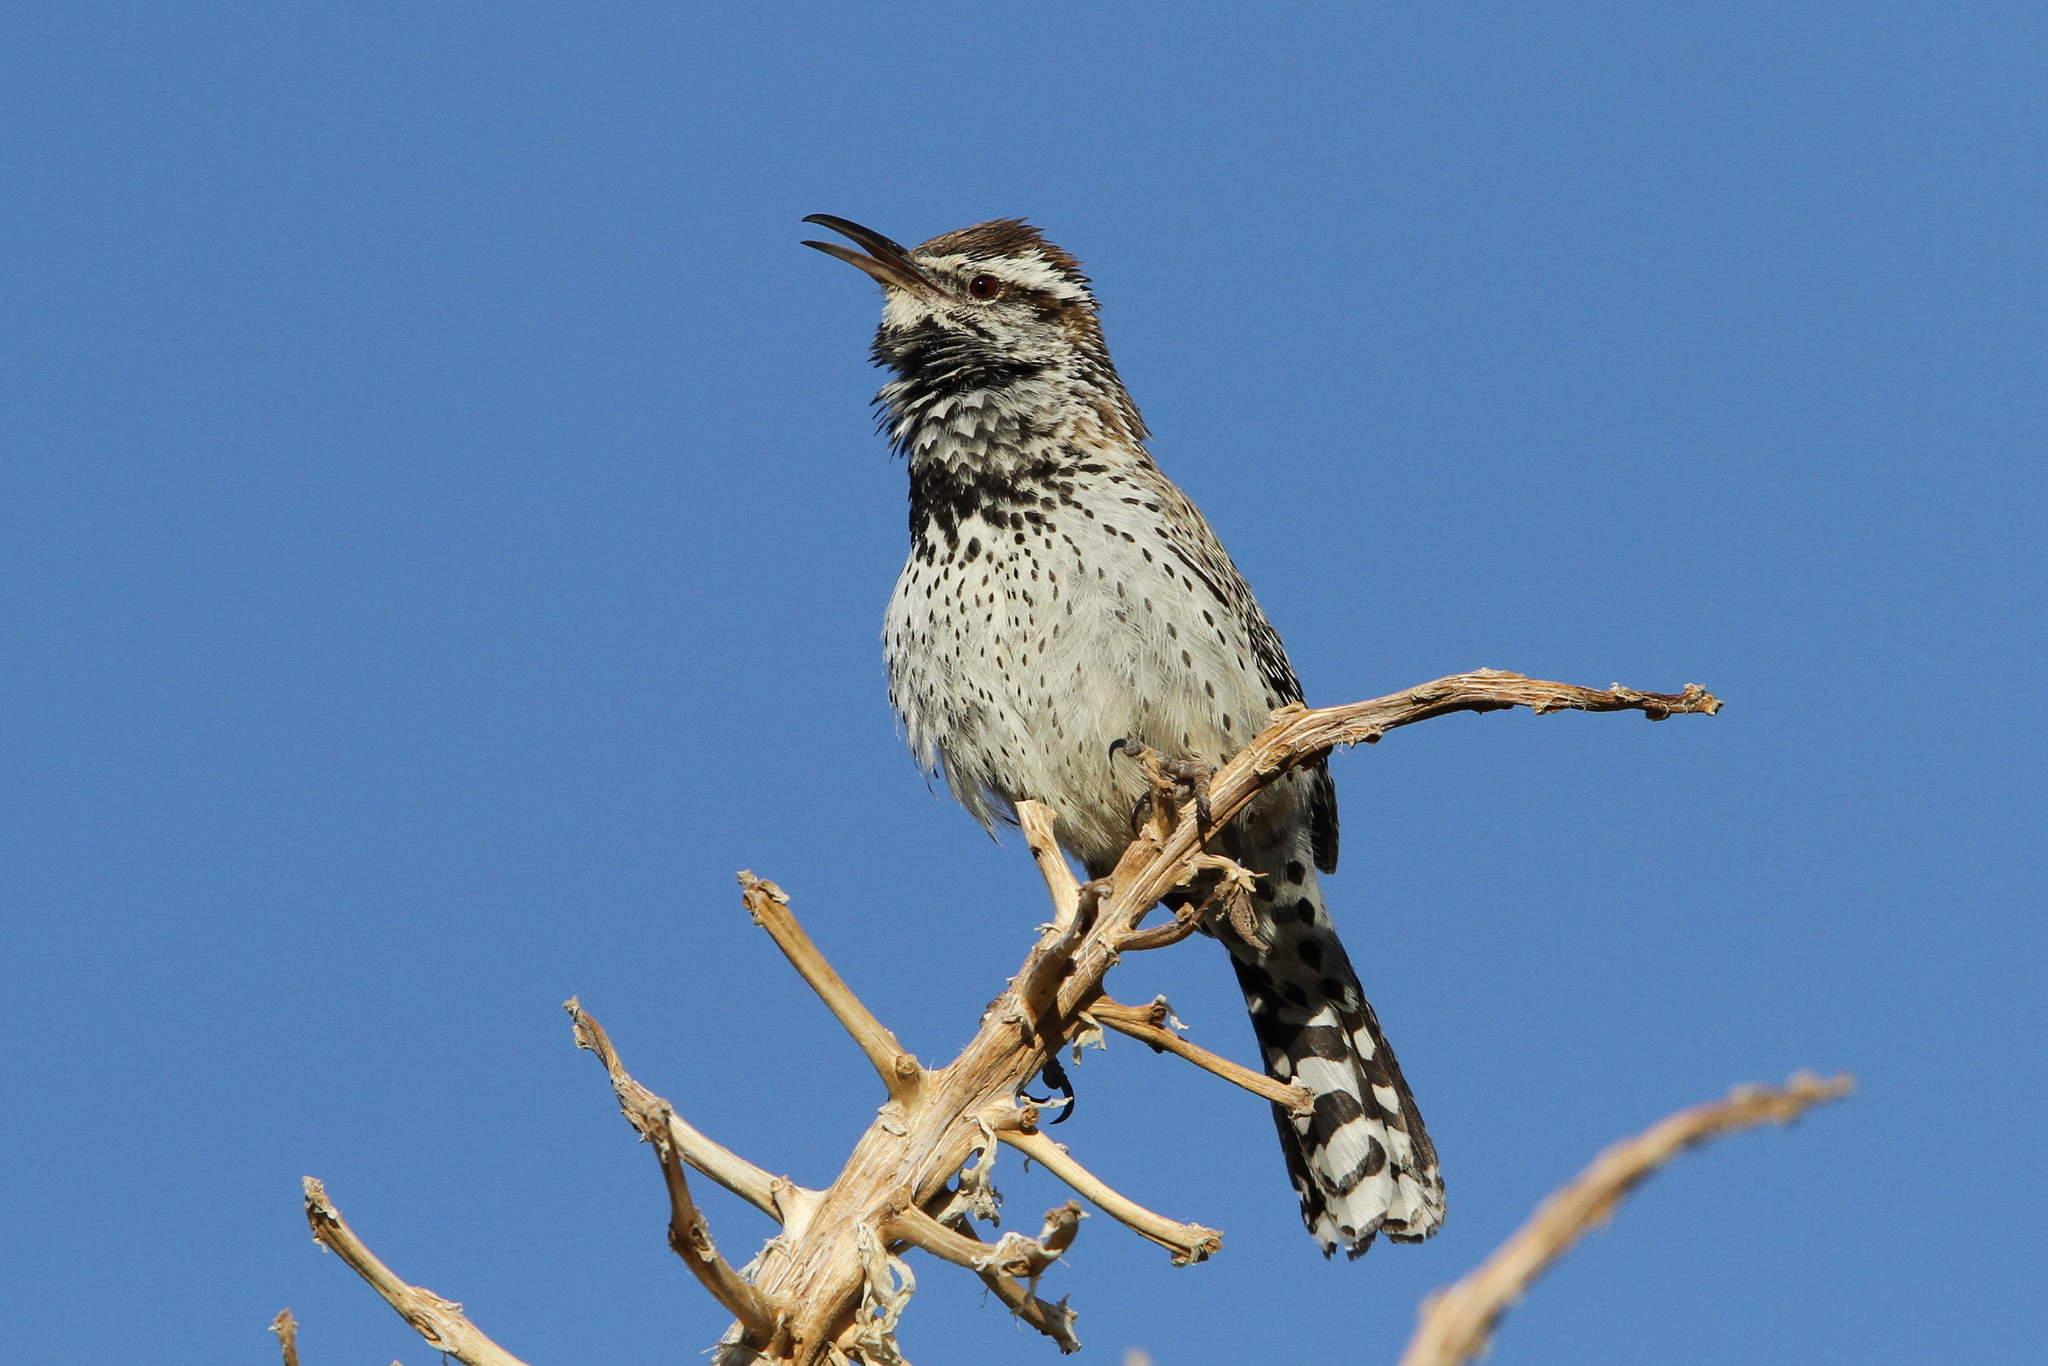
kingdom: Animalia
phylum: Chordata
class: Aves
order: Passeriformes
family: Troglodytidae
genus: Campylorhynchus
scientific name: Campylorhynchus brunneicapillus
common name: Cactus wren
